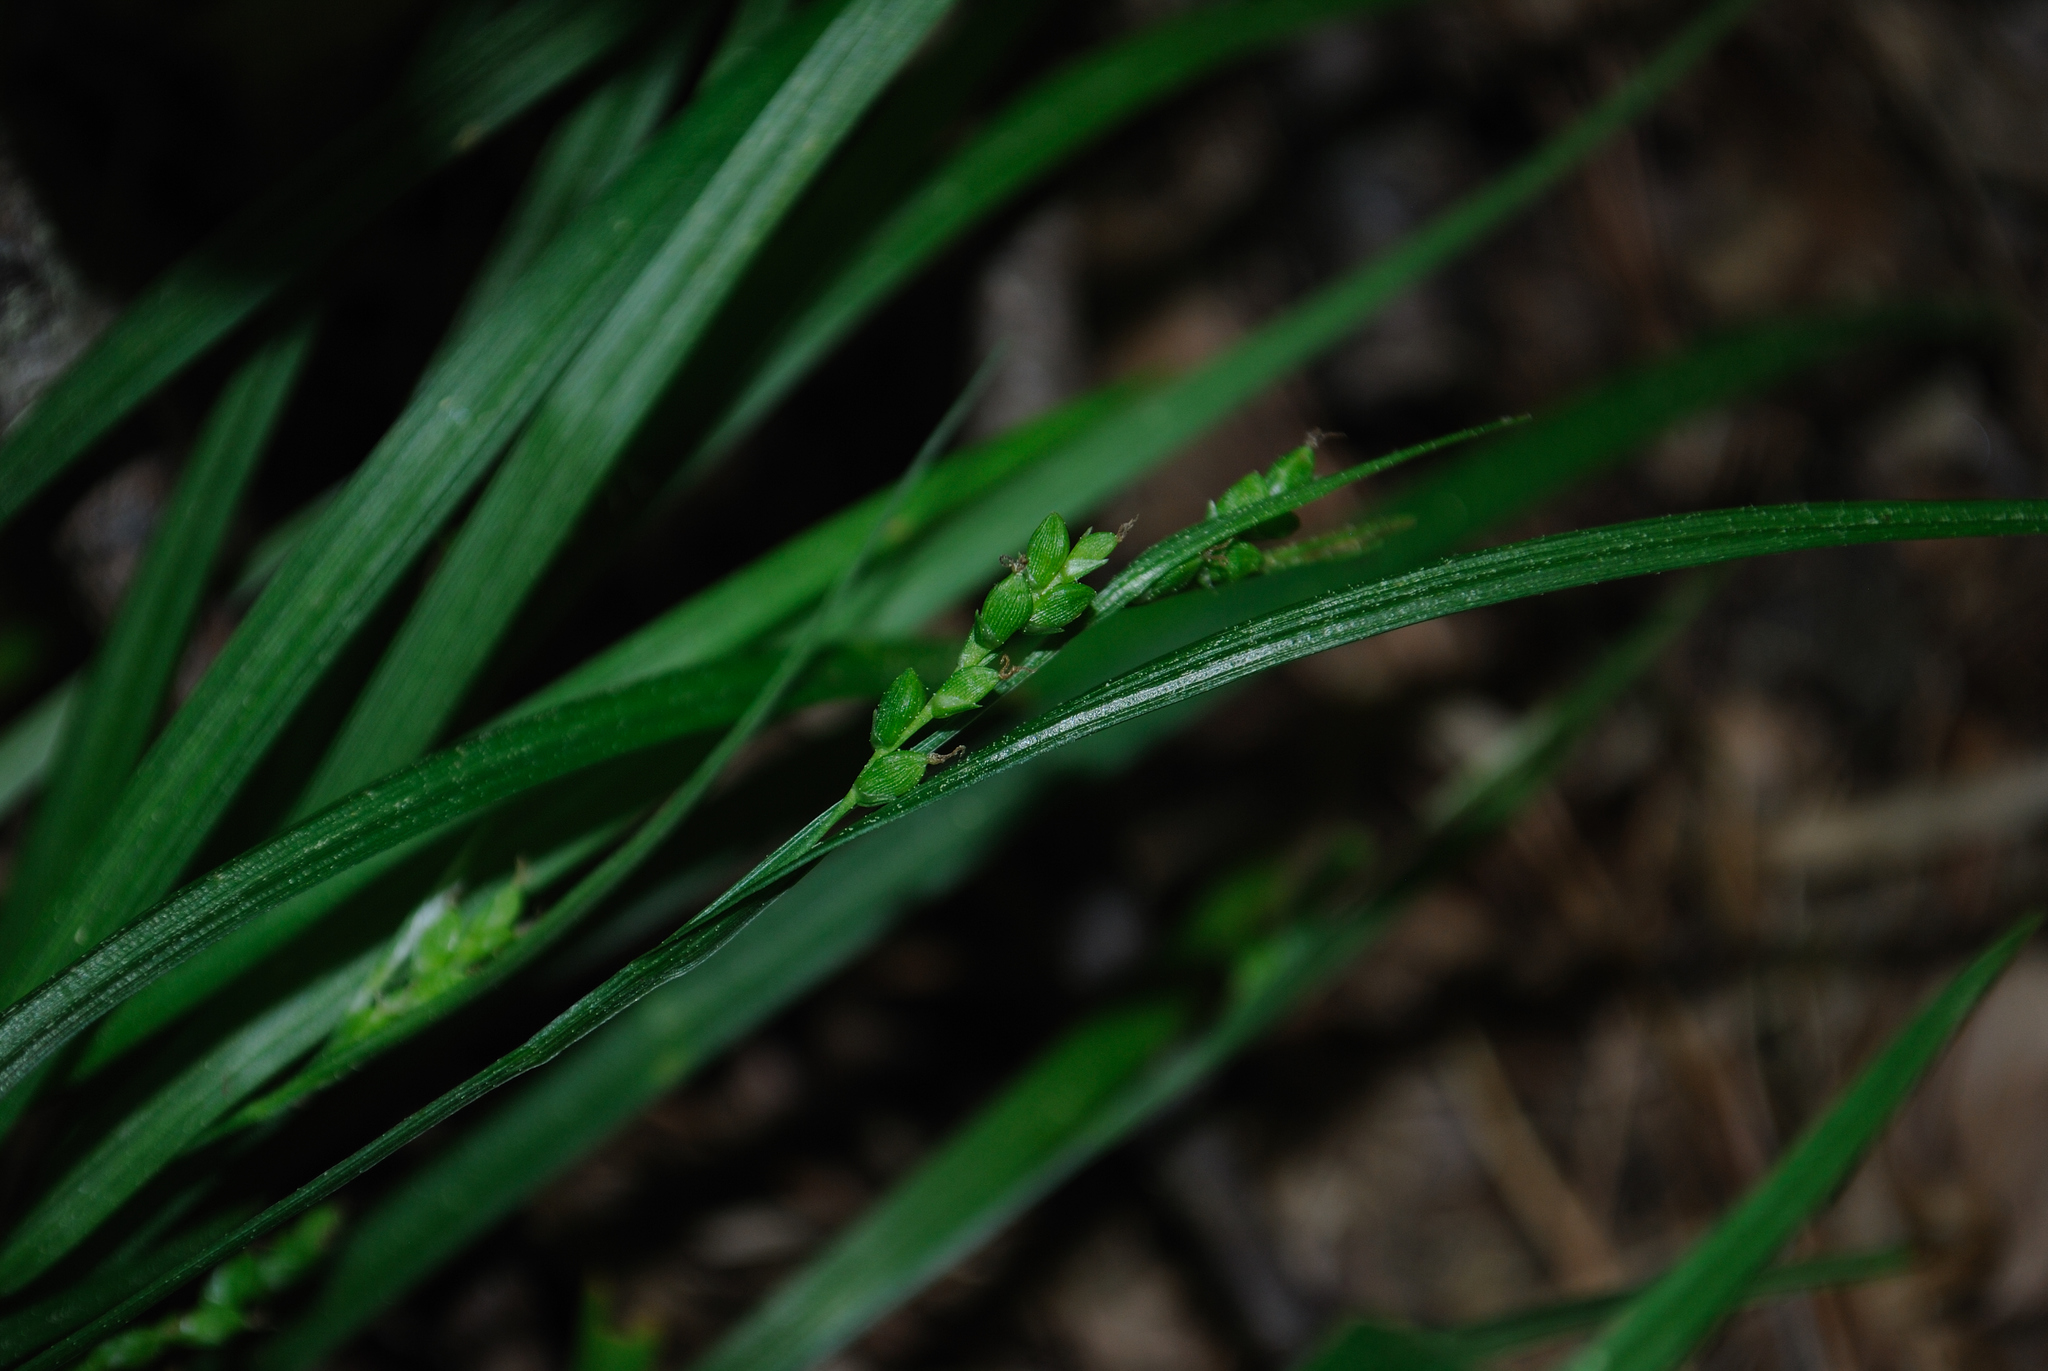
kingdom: Plantae
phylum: Tracheophyta
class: Liliopsida
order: Poales
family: Cyperaceae
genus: Carex
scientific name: Carex digitalis
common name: Slender wood sedge
